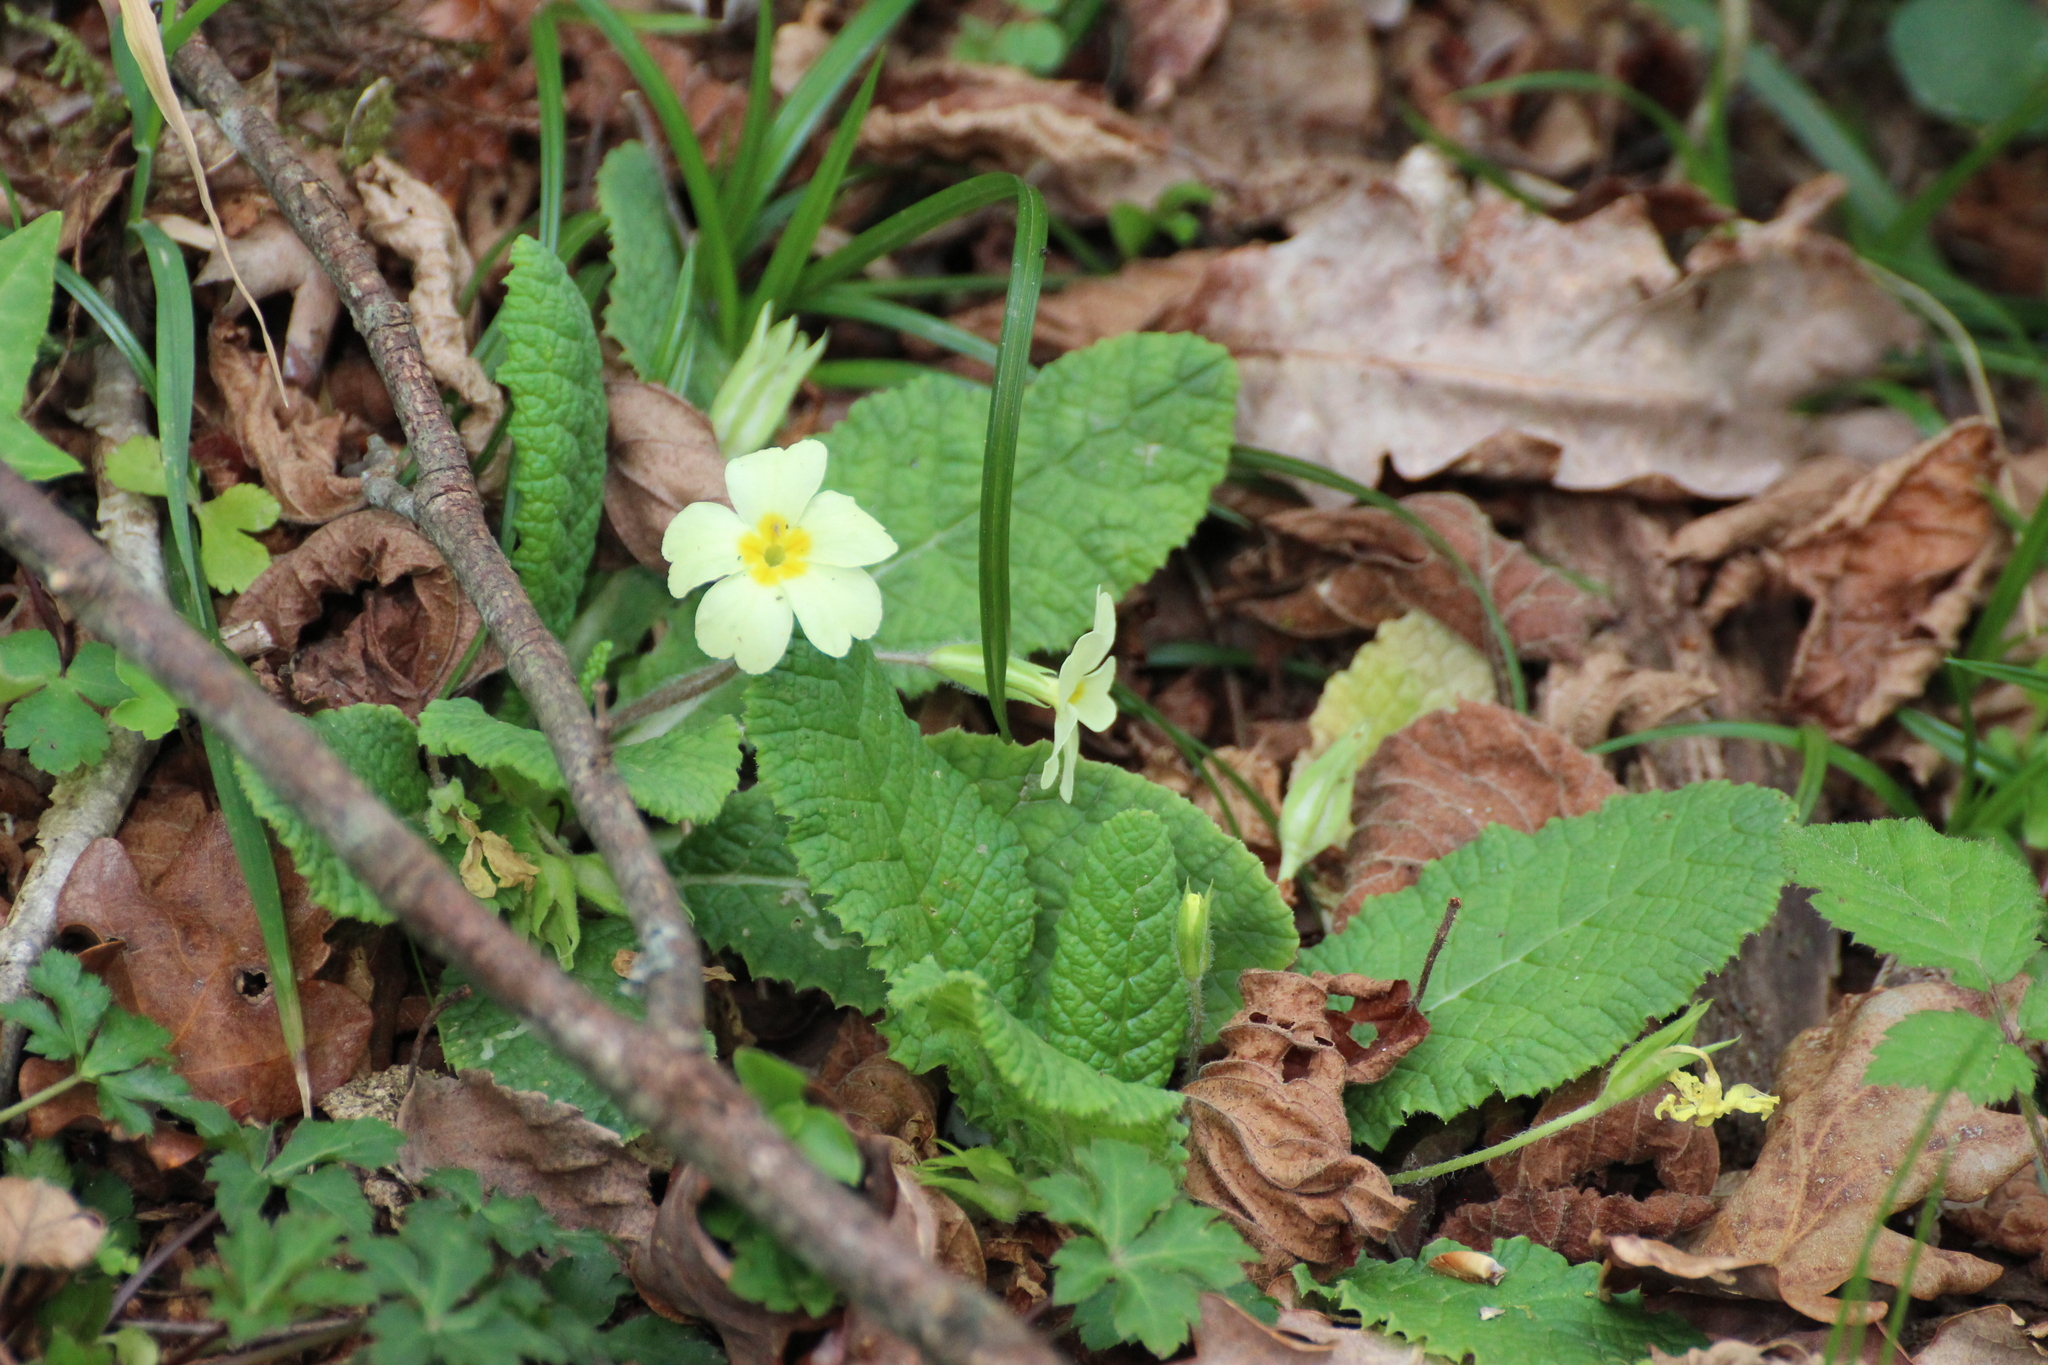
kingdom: Plantae
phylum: Tracheophyta
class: Magnoliopsida
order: Ericales
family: Primulaceae
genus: Primula
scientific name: Primula vulgaris
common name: Primrose
